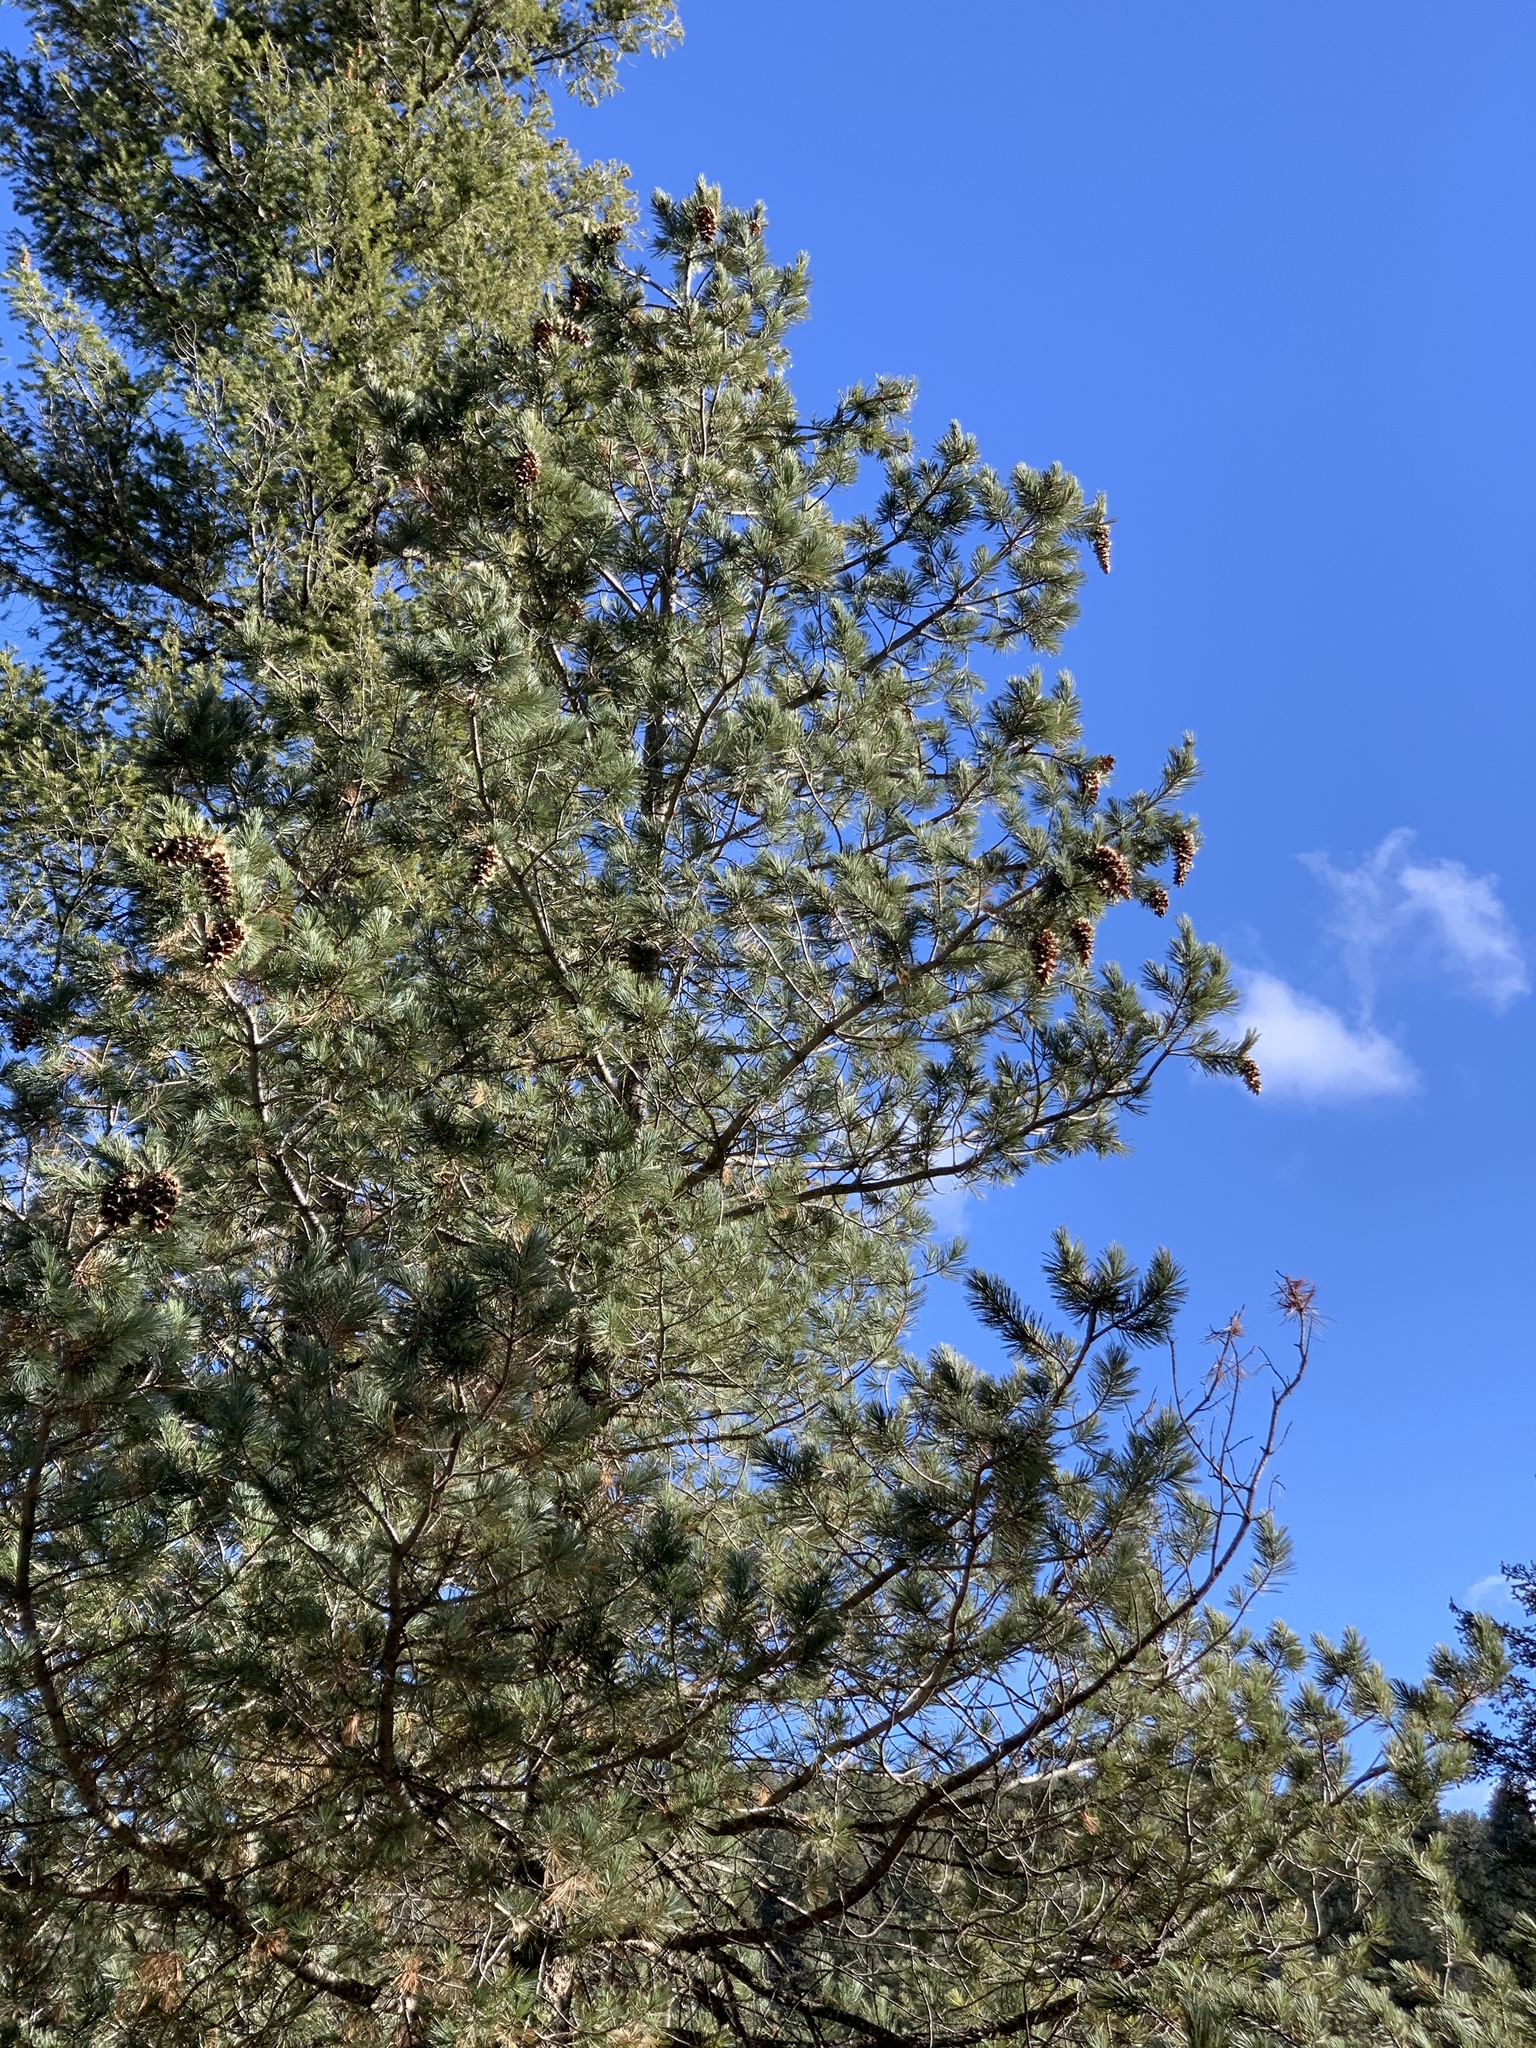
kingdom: Plantae
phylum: Tracheophyta
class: Pinopsida
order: Pinales
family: Pinaceae
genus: Pinus
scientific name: Pinus strobiformis
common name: Southwestern white pine
